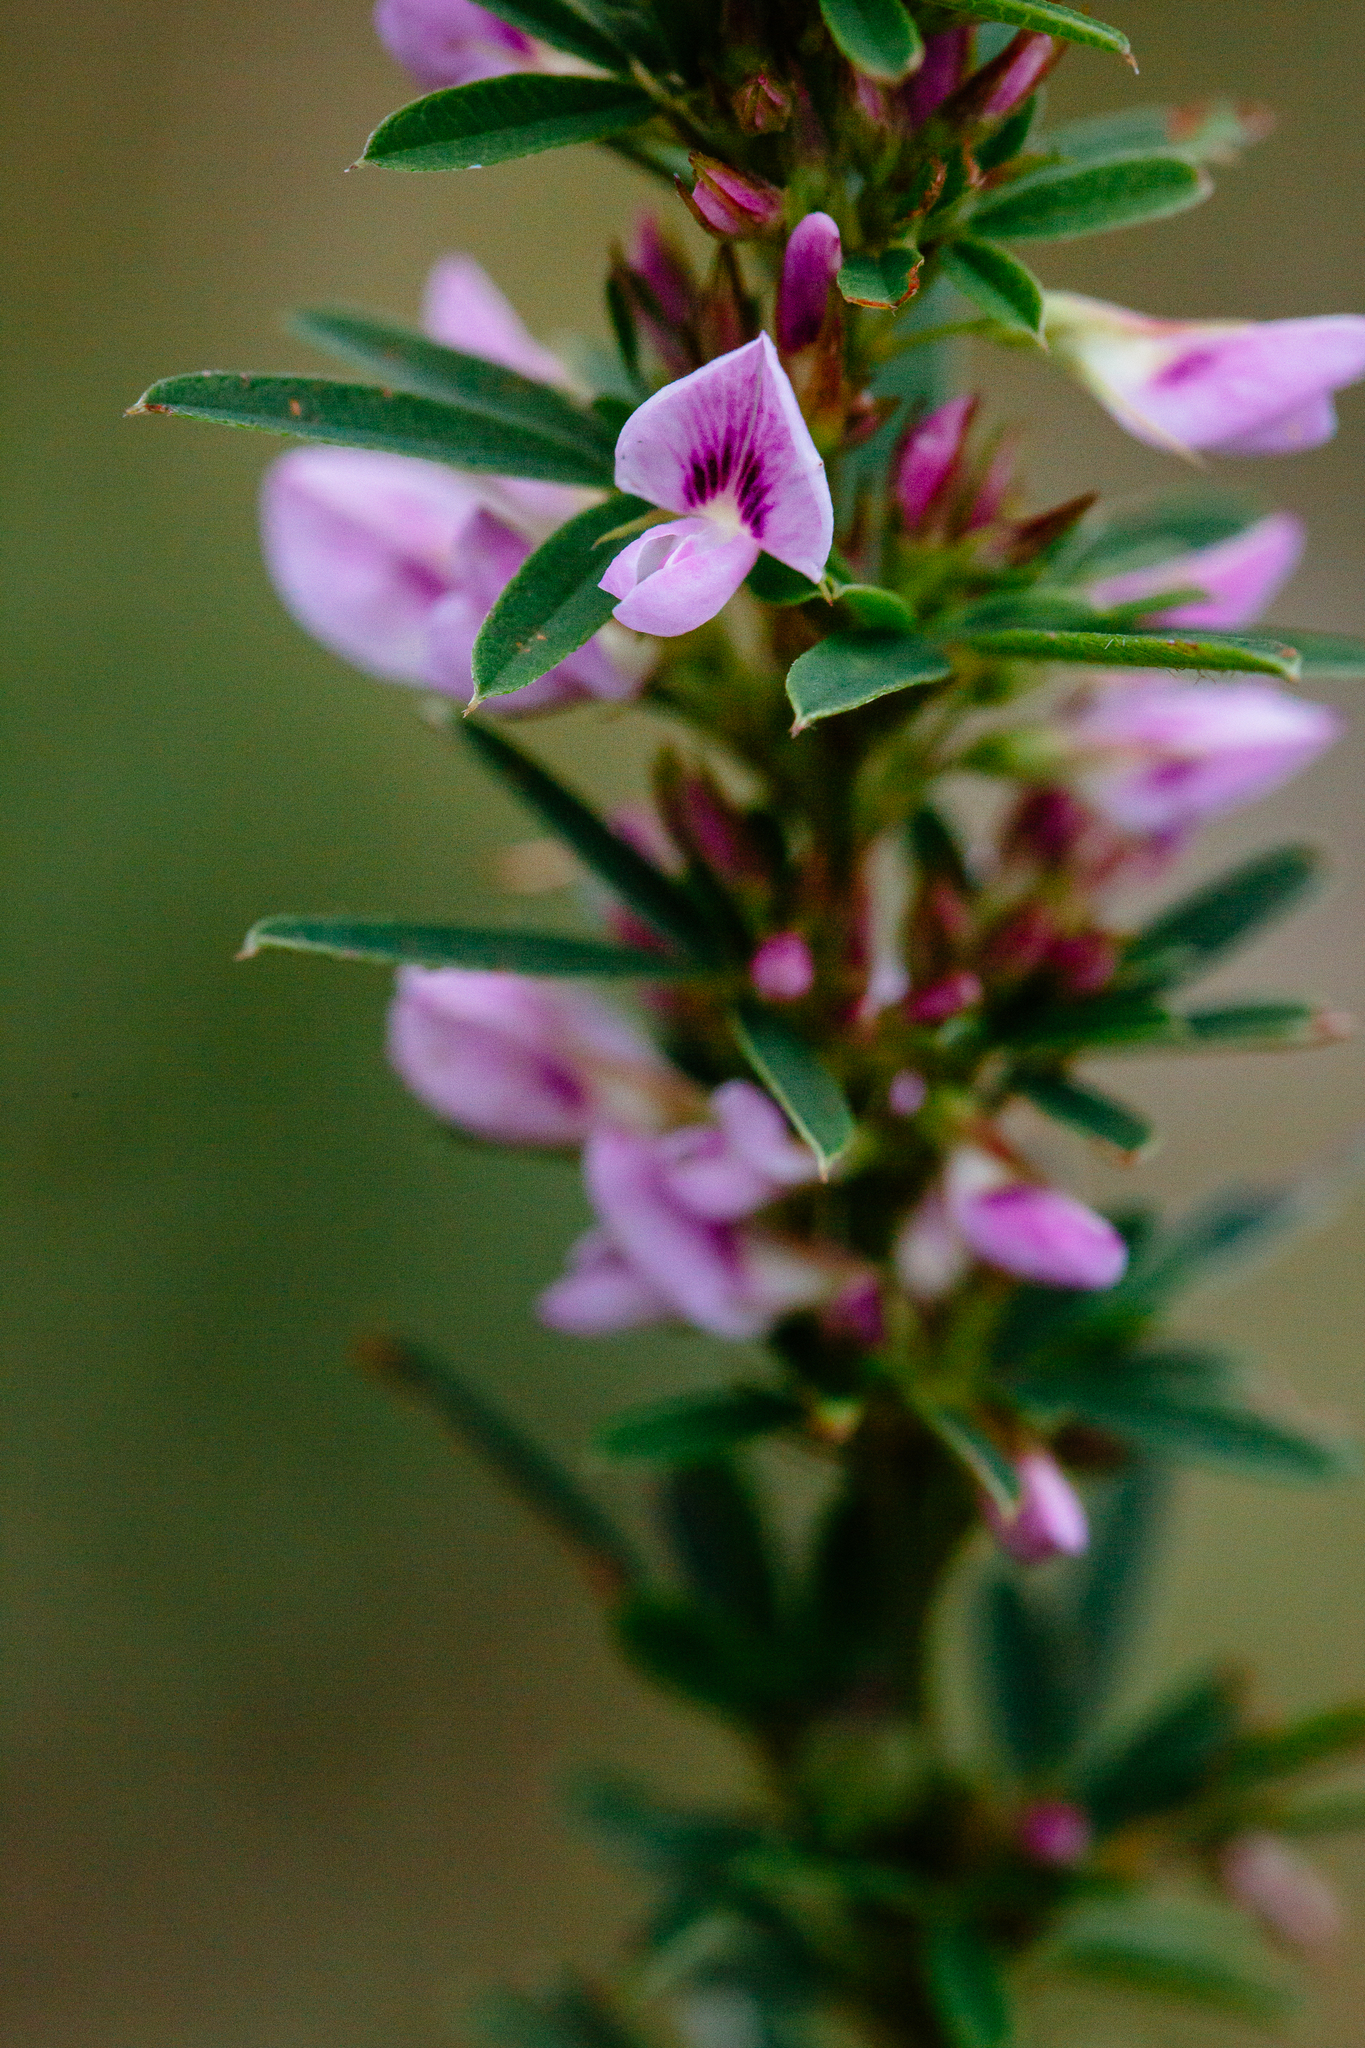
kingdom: Plantae
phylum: Tracheophyta
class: Magnoliopsida
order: Fabales
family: Fabaceae
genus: Lespedeza
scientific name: Lespedeza virginica
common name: Slender bush-clover
